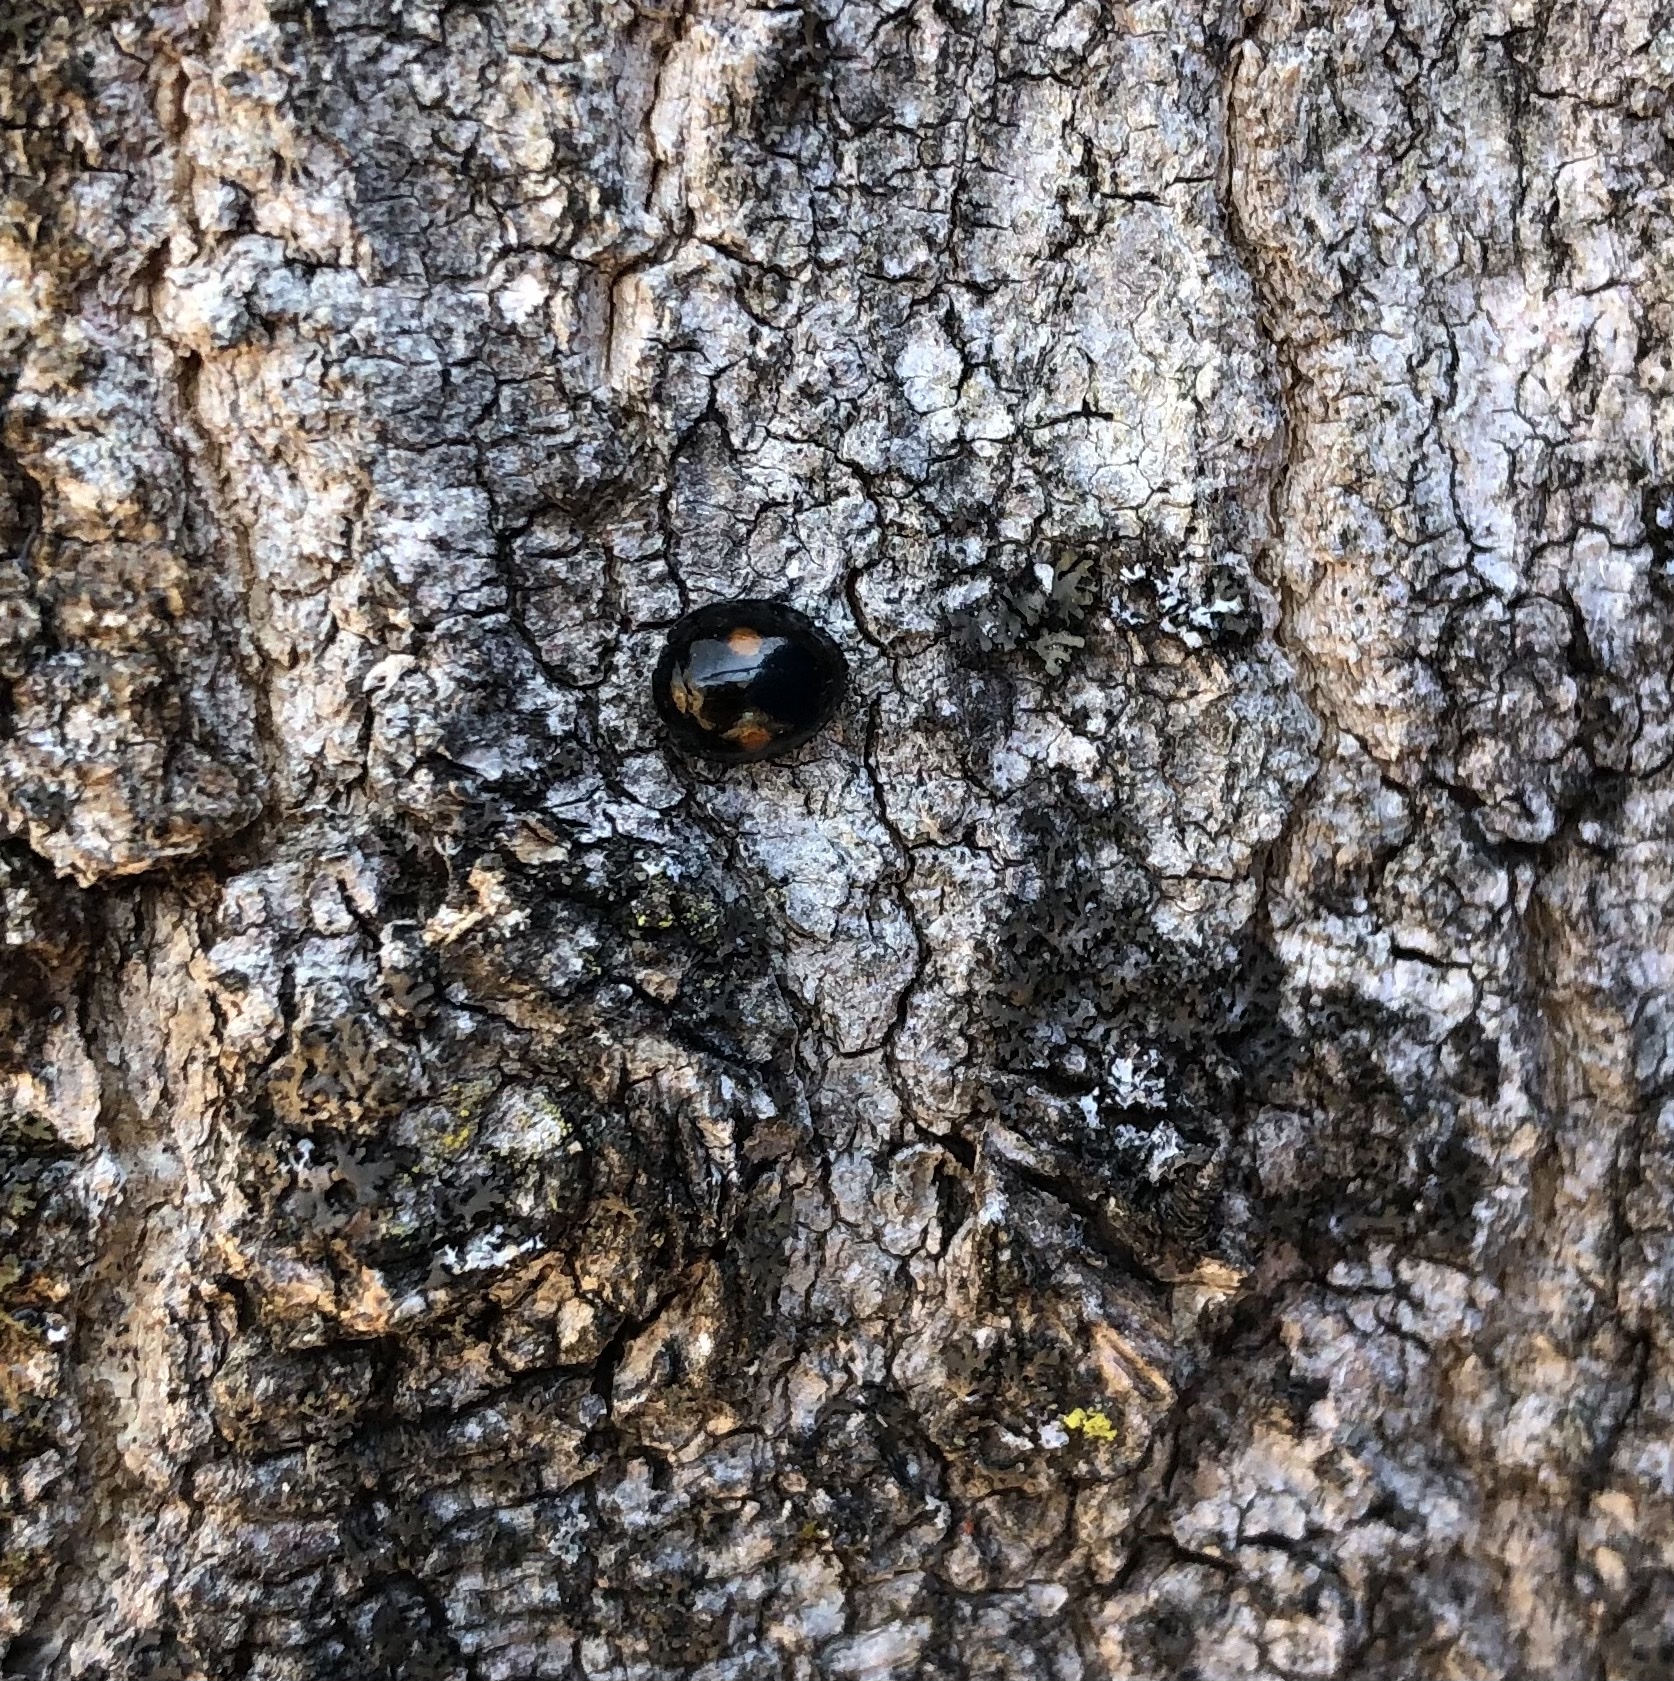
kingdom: Animalia
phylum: Arthropoda
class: Insecta
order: Coleoptera
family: Coccinellidae
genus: Chilocorus
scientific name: Chilocorus stigma
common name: Twicestabbed lady beetle
